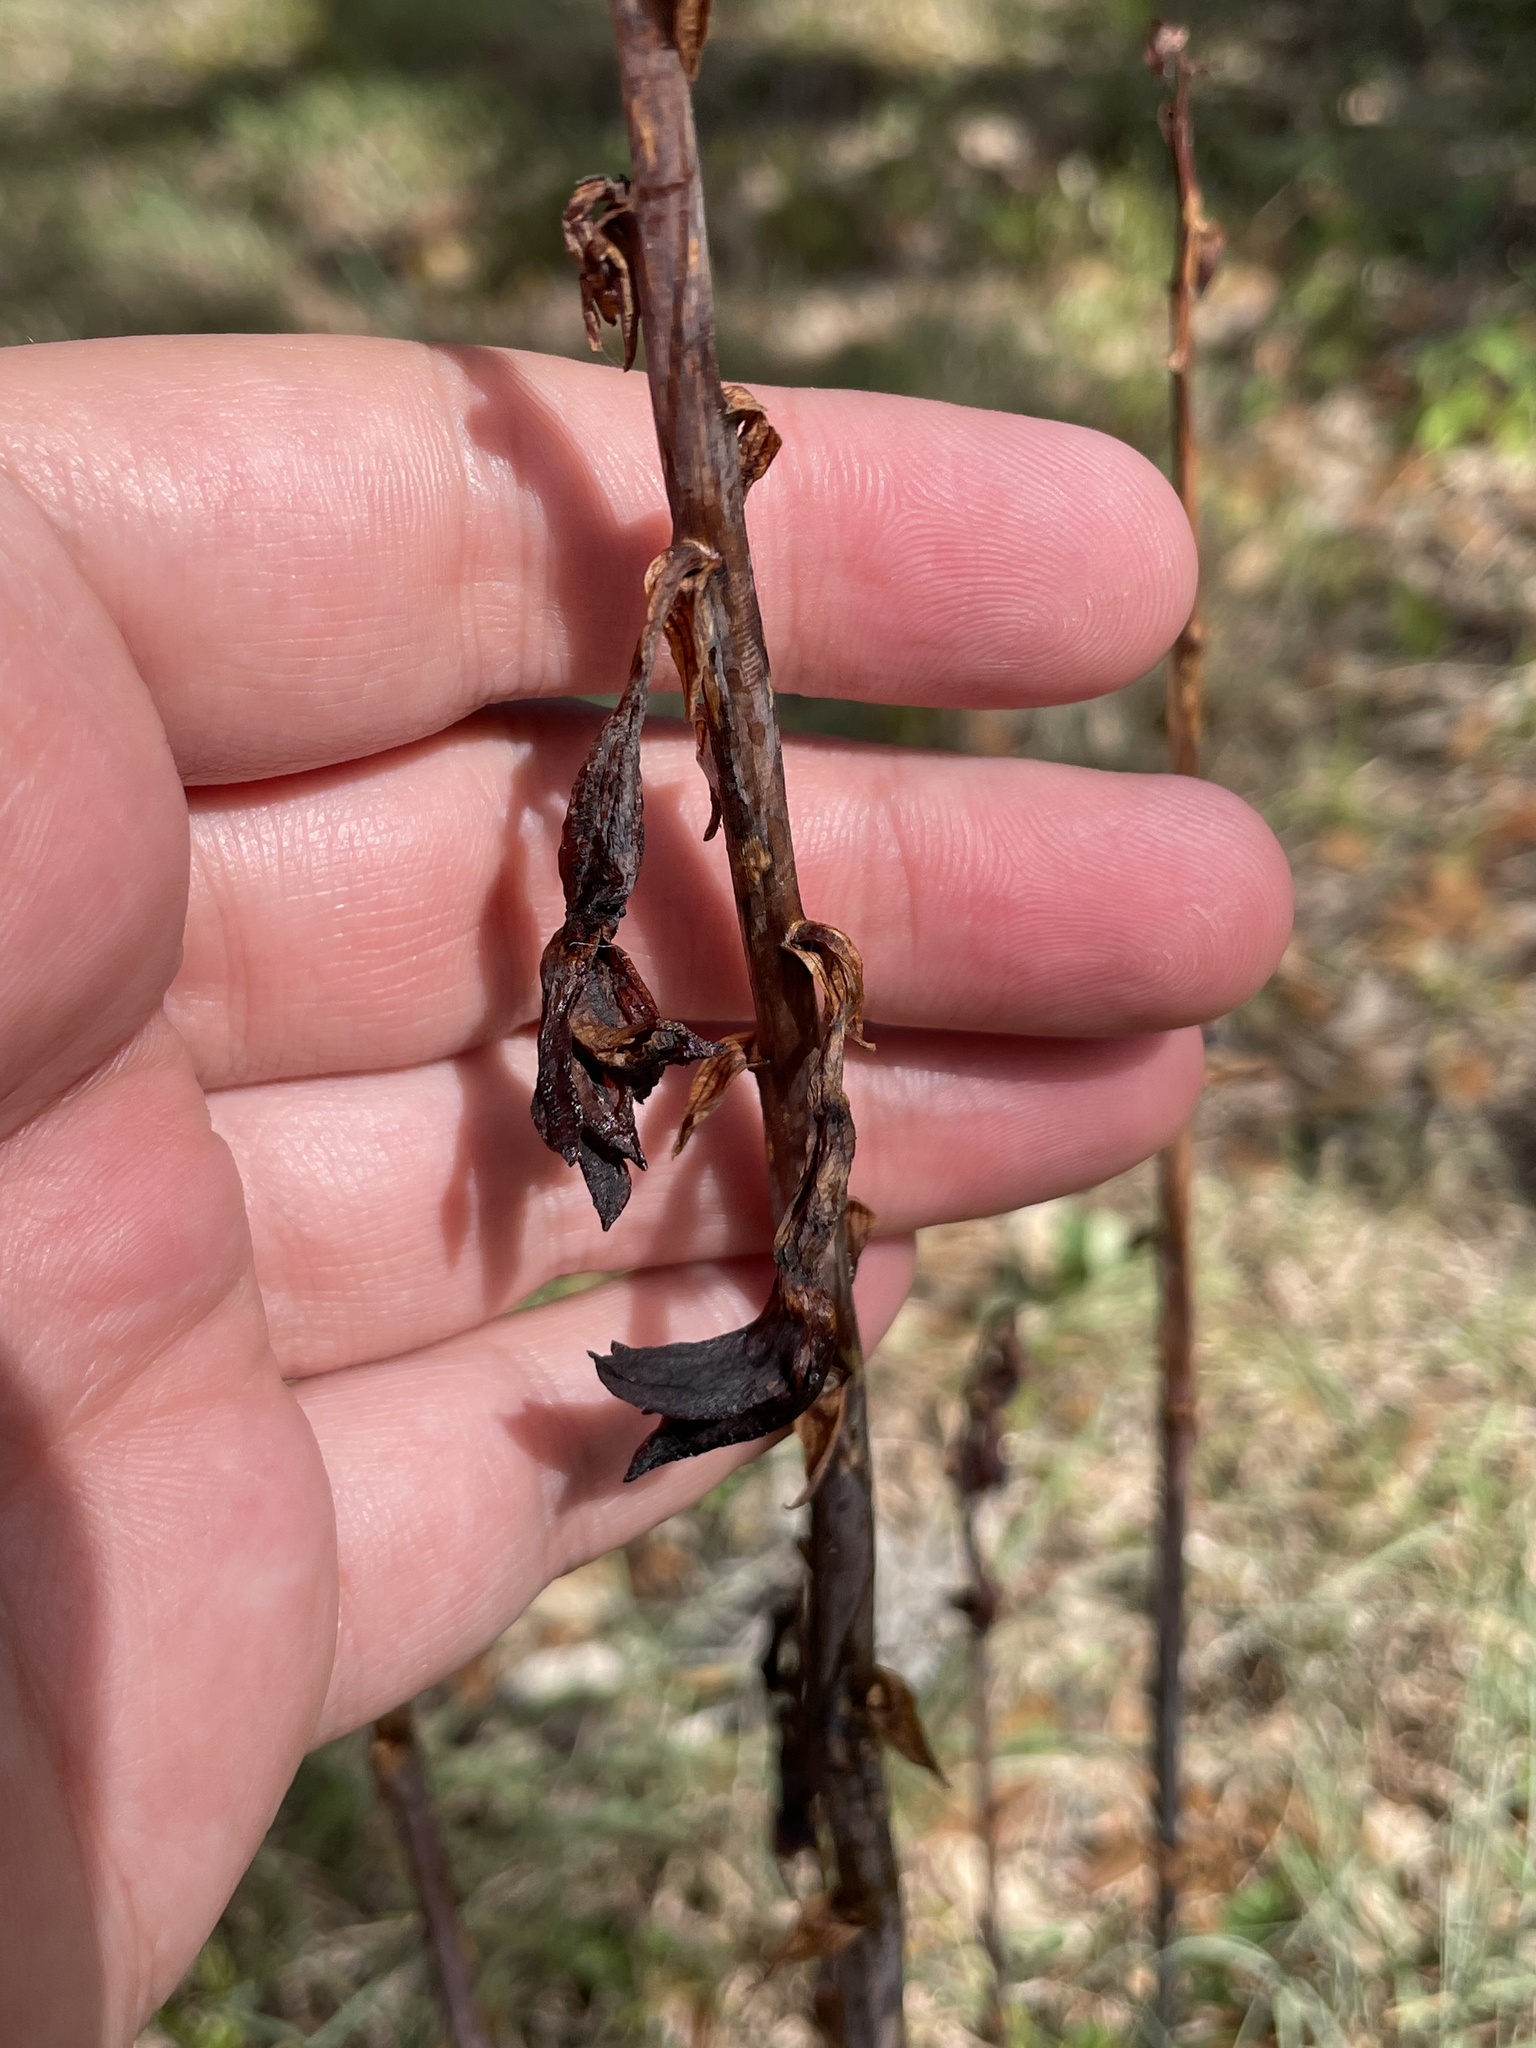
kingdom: Plantae
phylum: Tracheophyta
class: Liliopsida
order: Asparagales
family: Orchidaceae
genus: Bletia
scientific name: Bletia spicata
